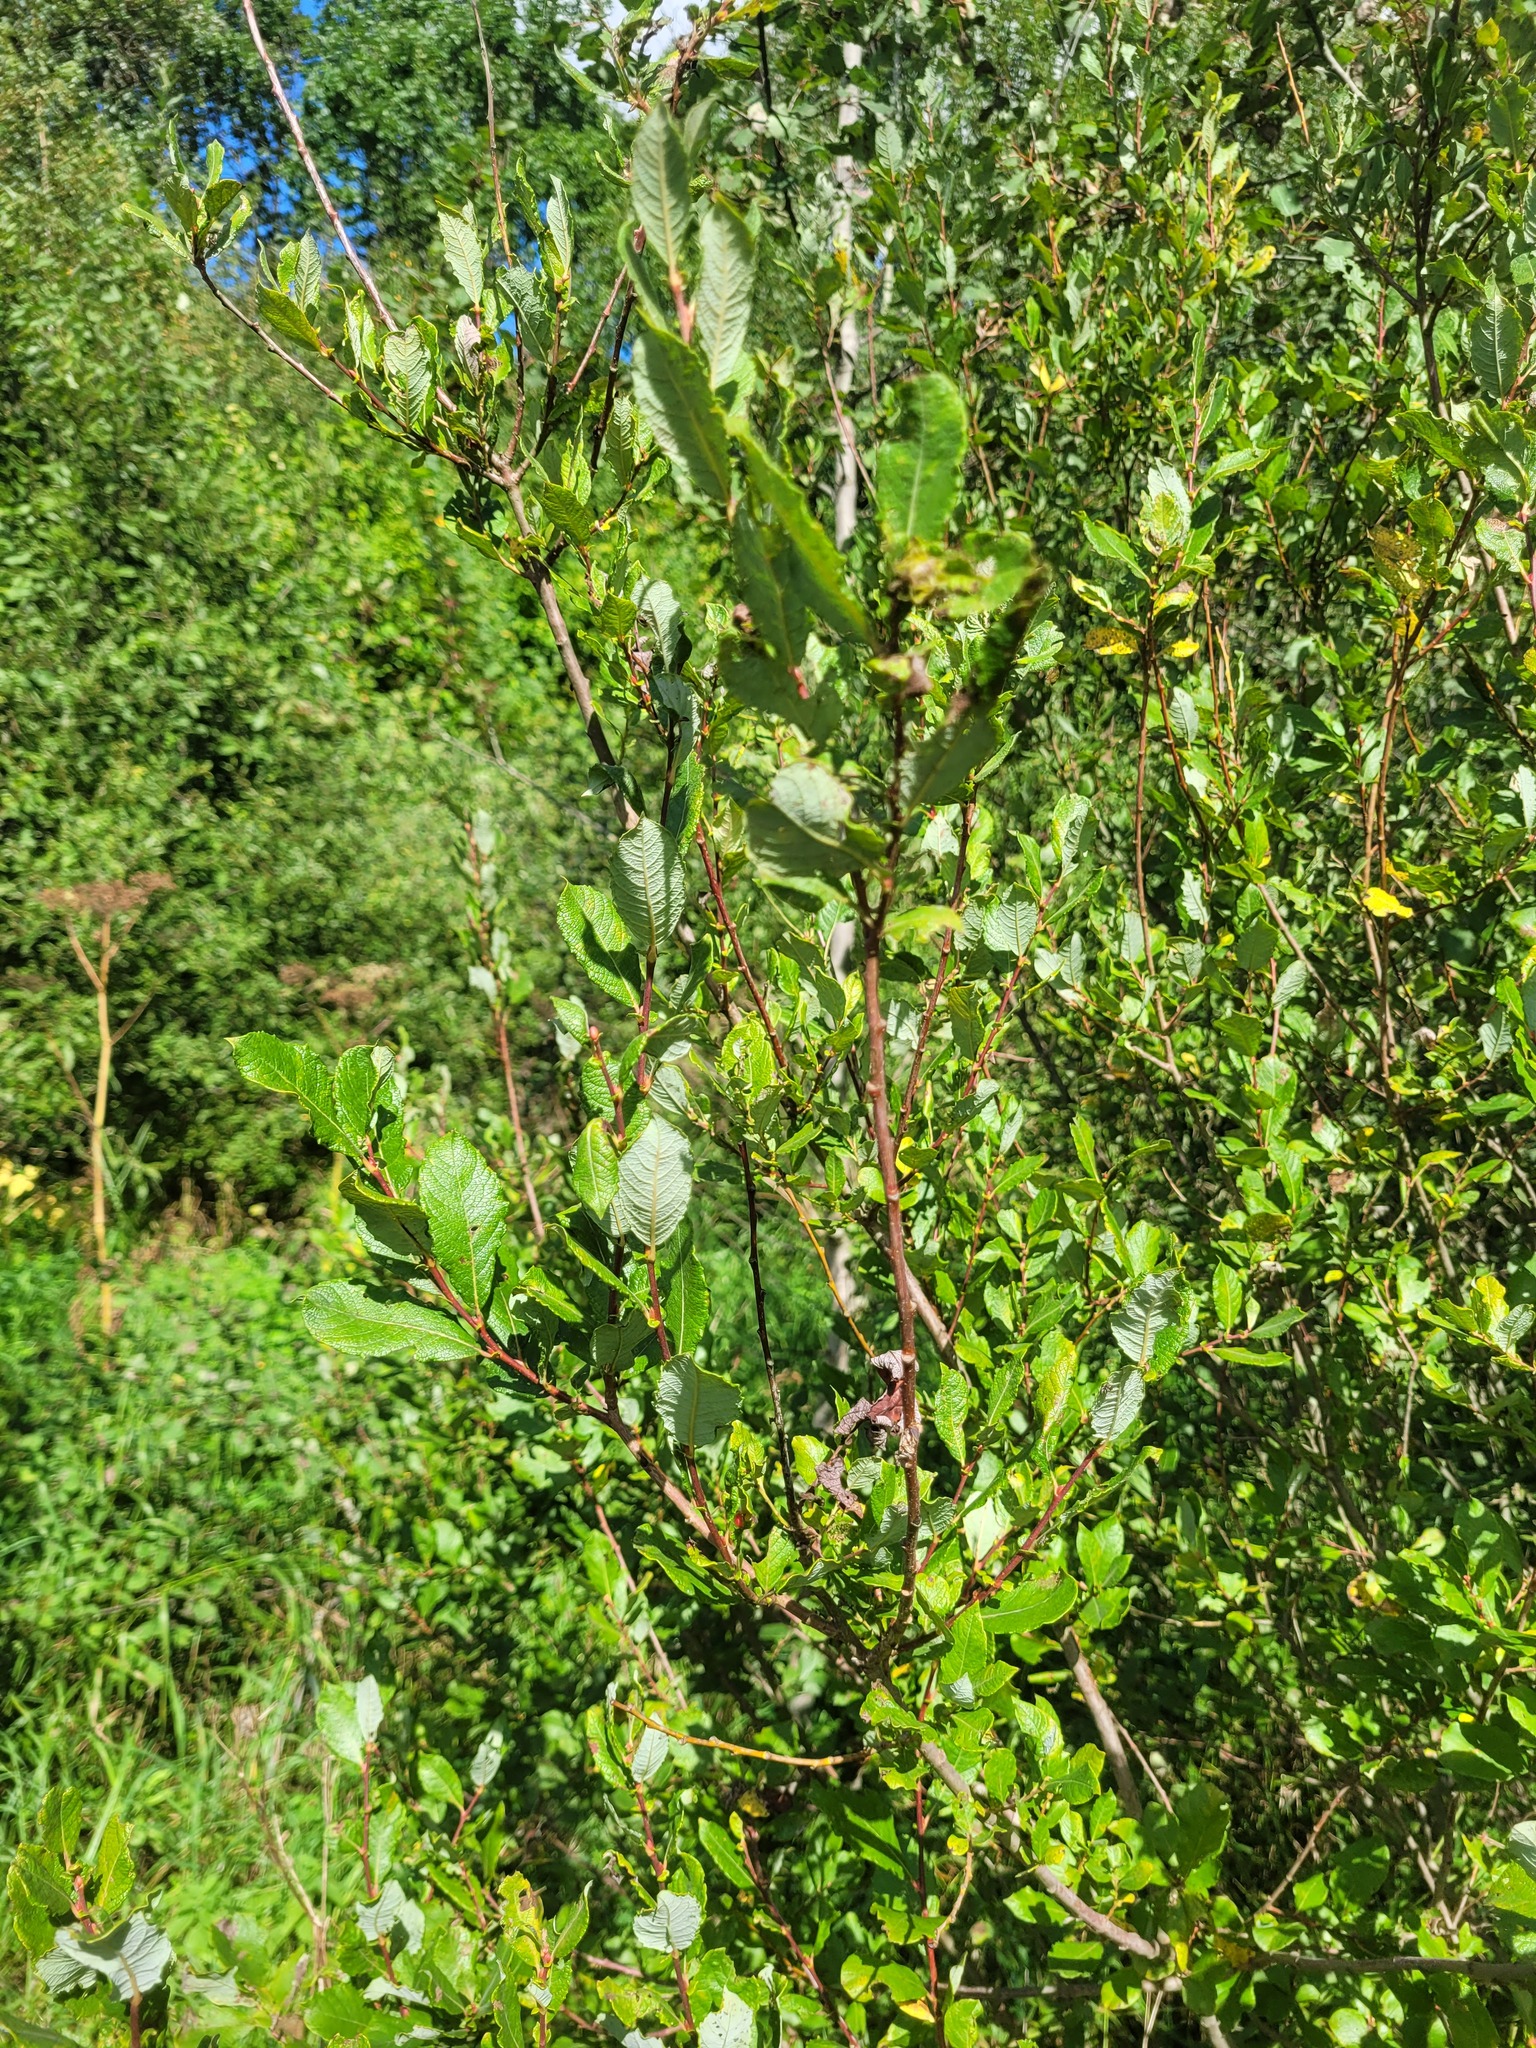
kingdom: Plantae
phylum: Tracheophyta
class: Magnoliopsida
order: Malpighiales
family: Salicaceae
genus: Salix
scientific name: Salix aurita
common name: Eared willow
